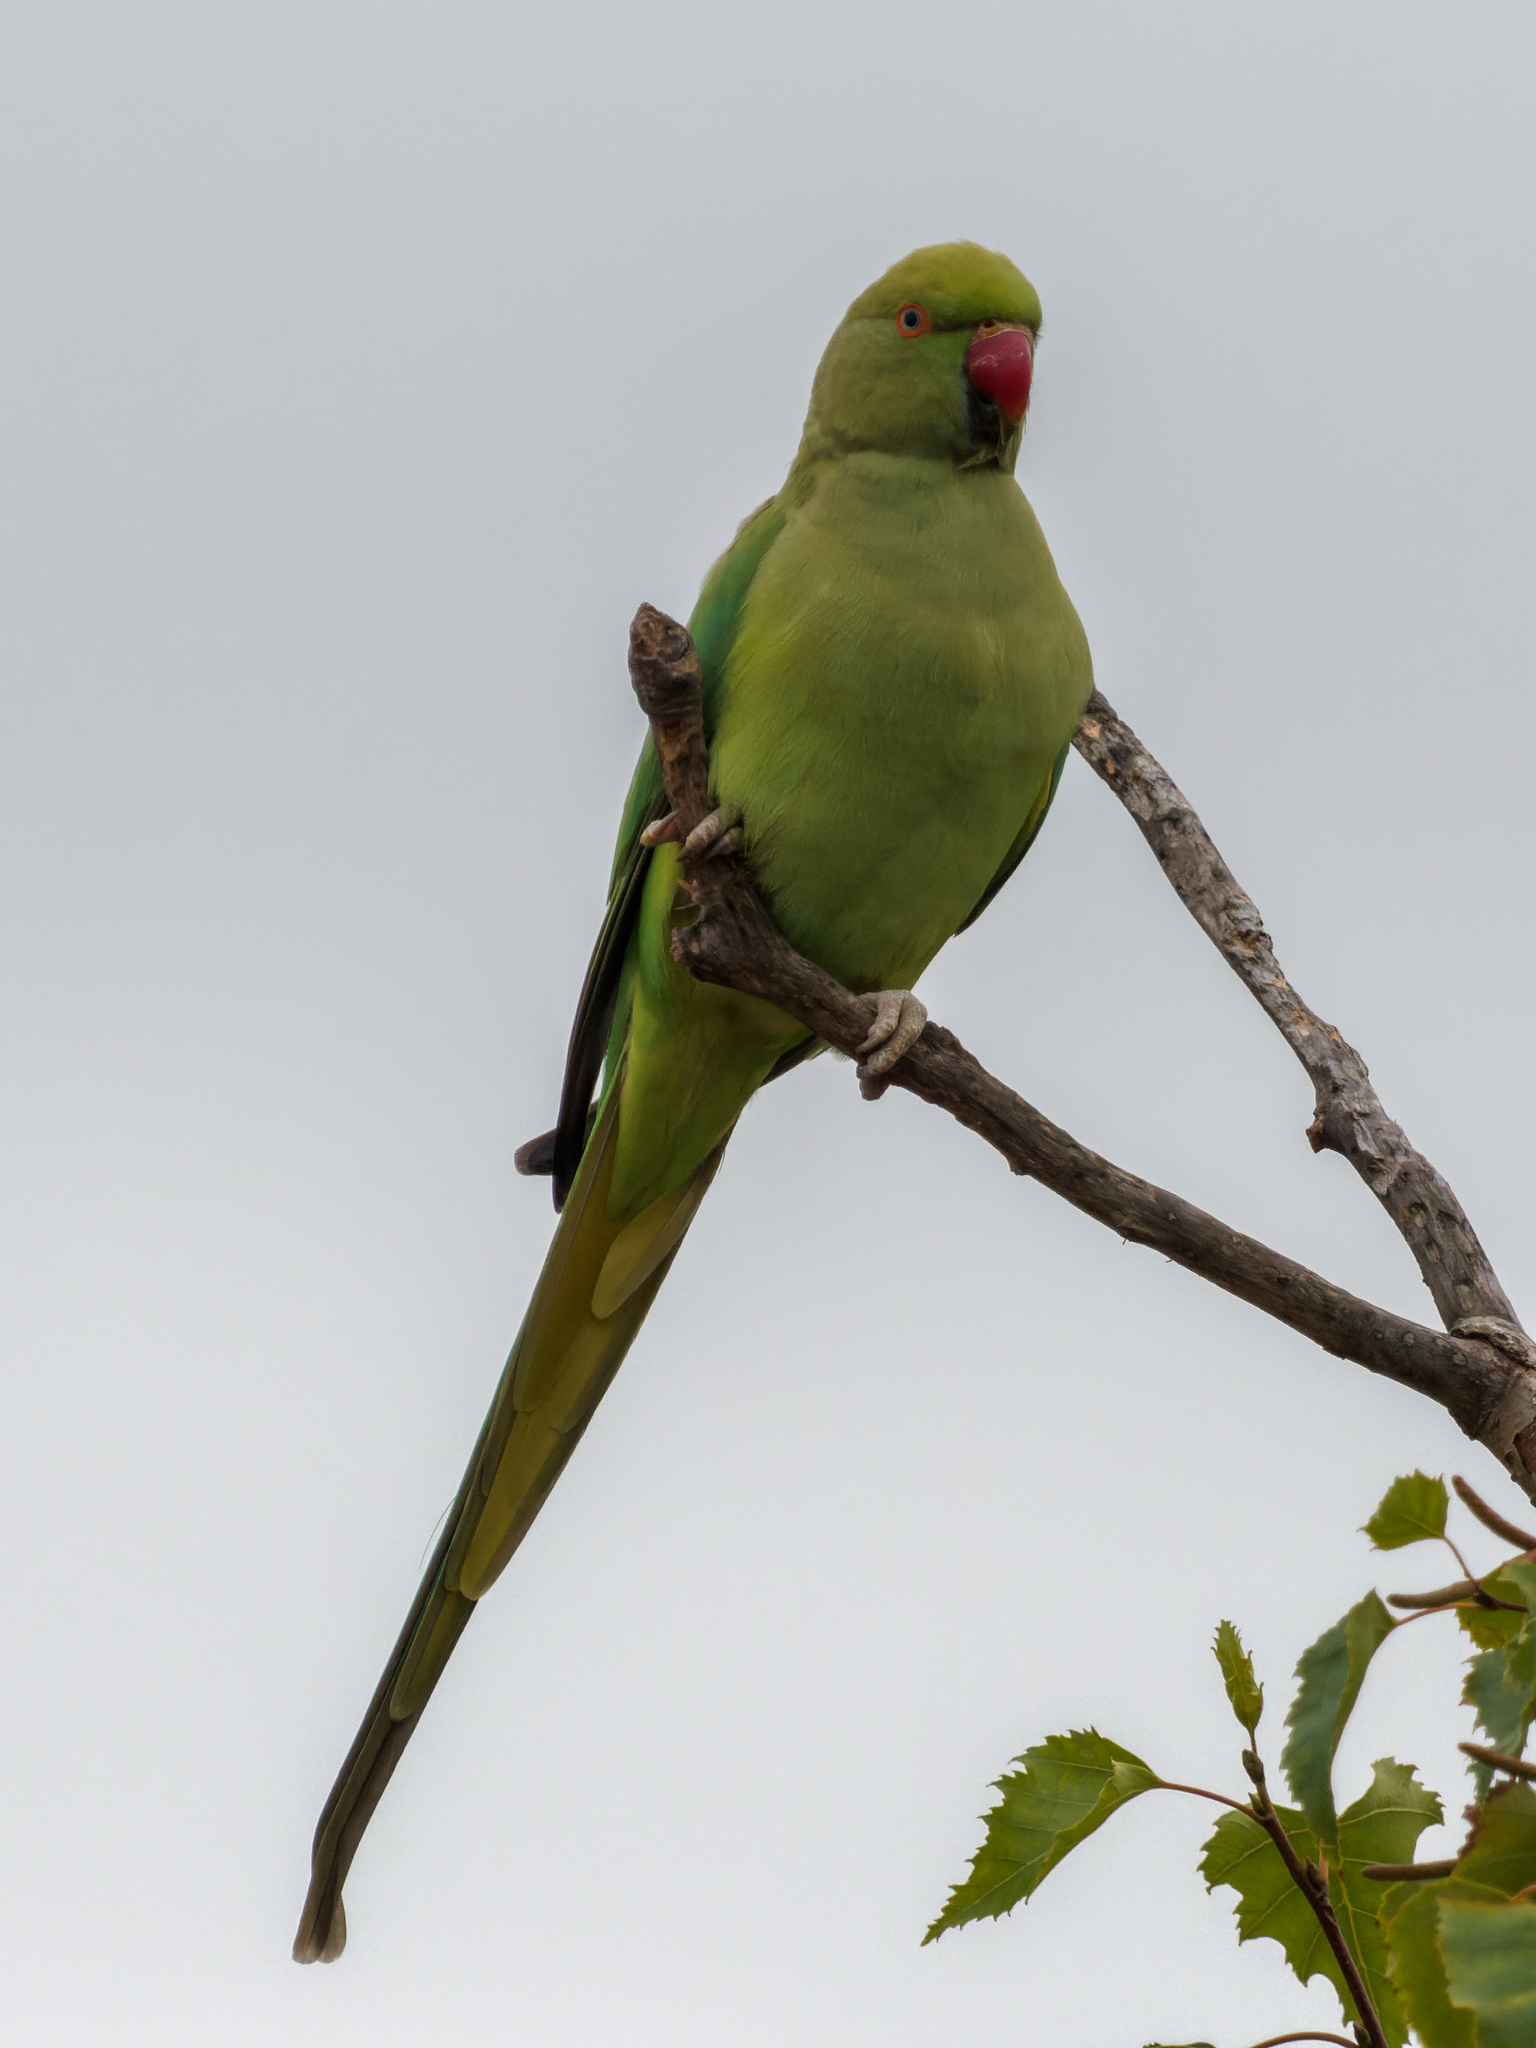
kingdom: Animalia
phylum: Chordata
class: Aves
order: Psittaciformes
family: Psittacidae
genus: Psittacula
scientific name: Psittacula krameri
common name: Rose-ringed parakeet
